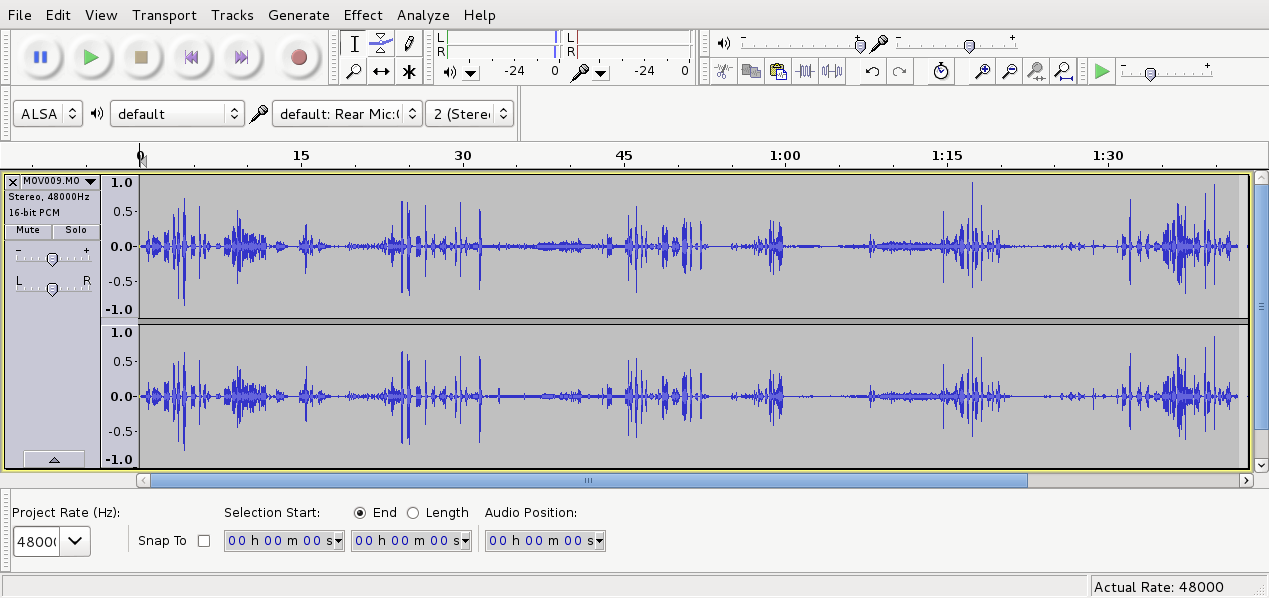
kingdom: Animalia
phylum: Chordata
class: Aves
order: Passeriformes
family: Meliphagidae
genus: Prosthemadera
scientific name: Prosthemadera novaeseelandiae
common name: Tui
